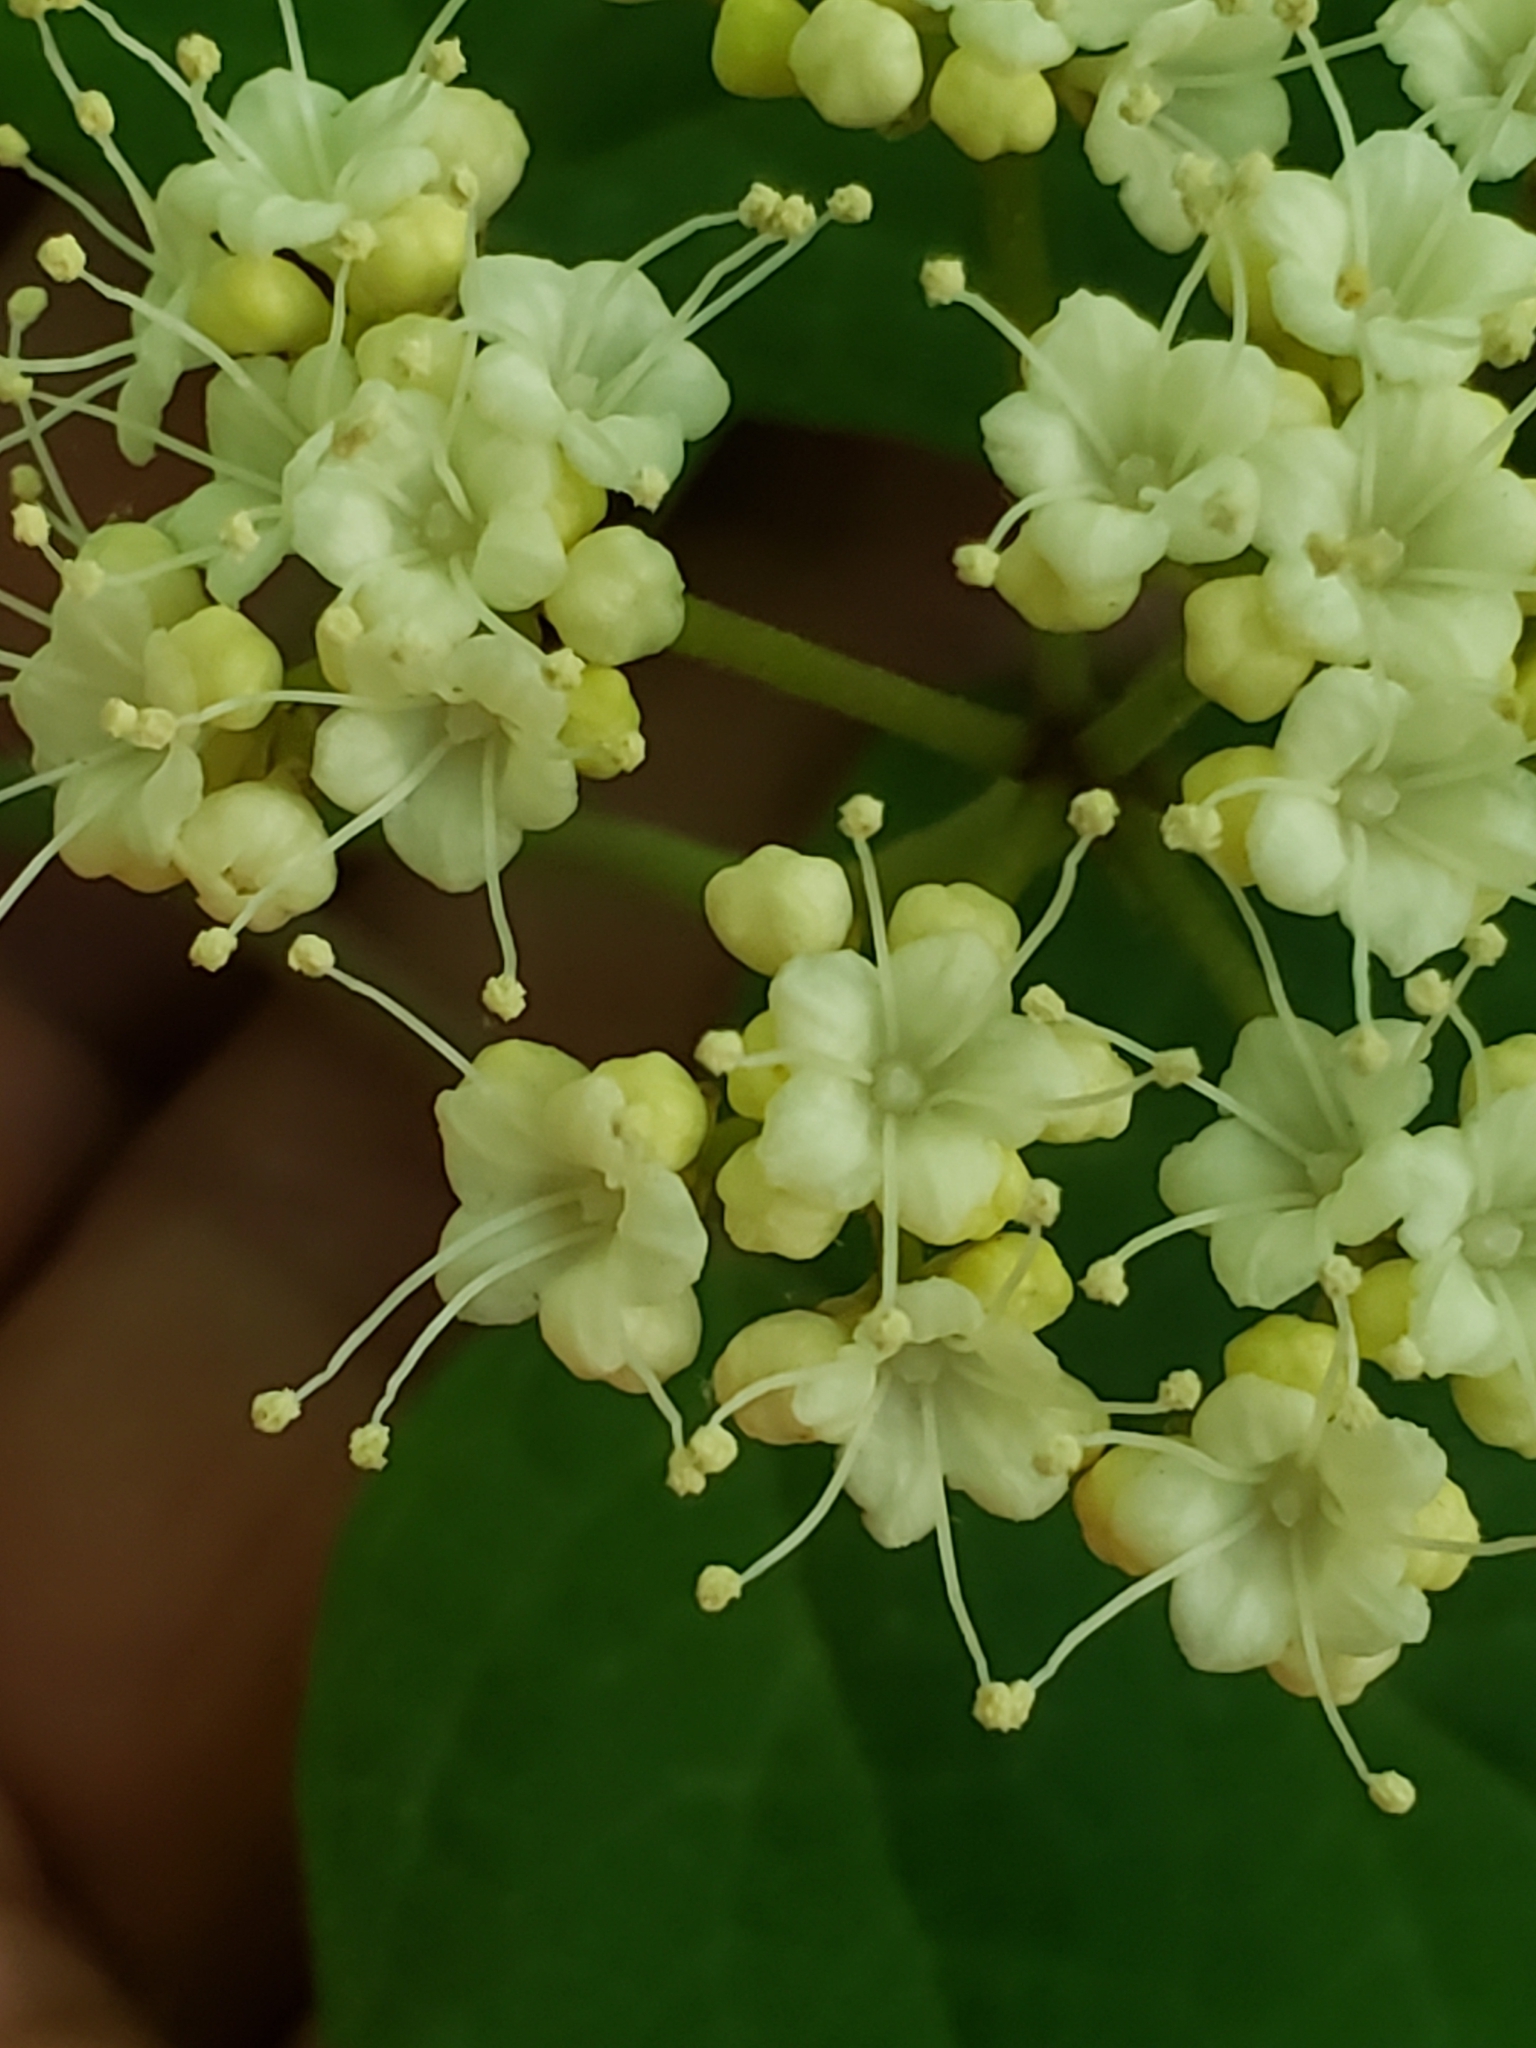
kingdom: Plantae
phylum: Tracheophyta
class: Magnoliopsida
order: Dipsacales
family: Viburnaceae
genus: Viburnum
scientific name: Viburnum acerifolium
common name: Dockmackie
